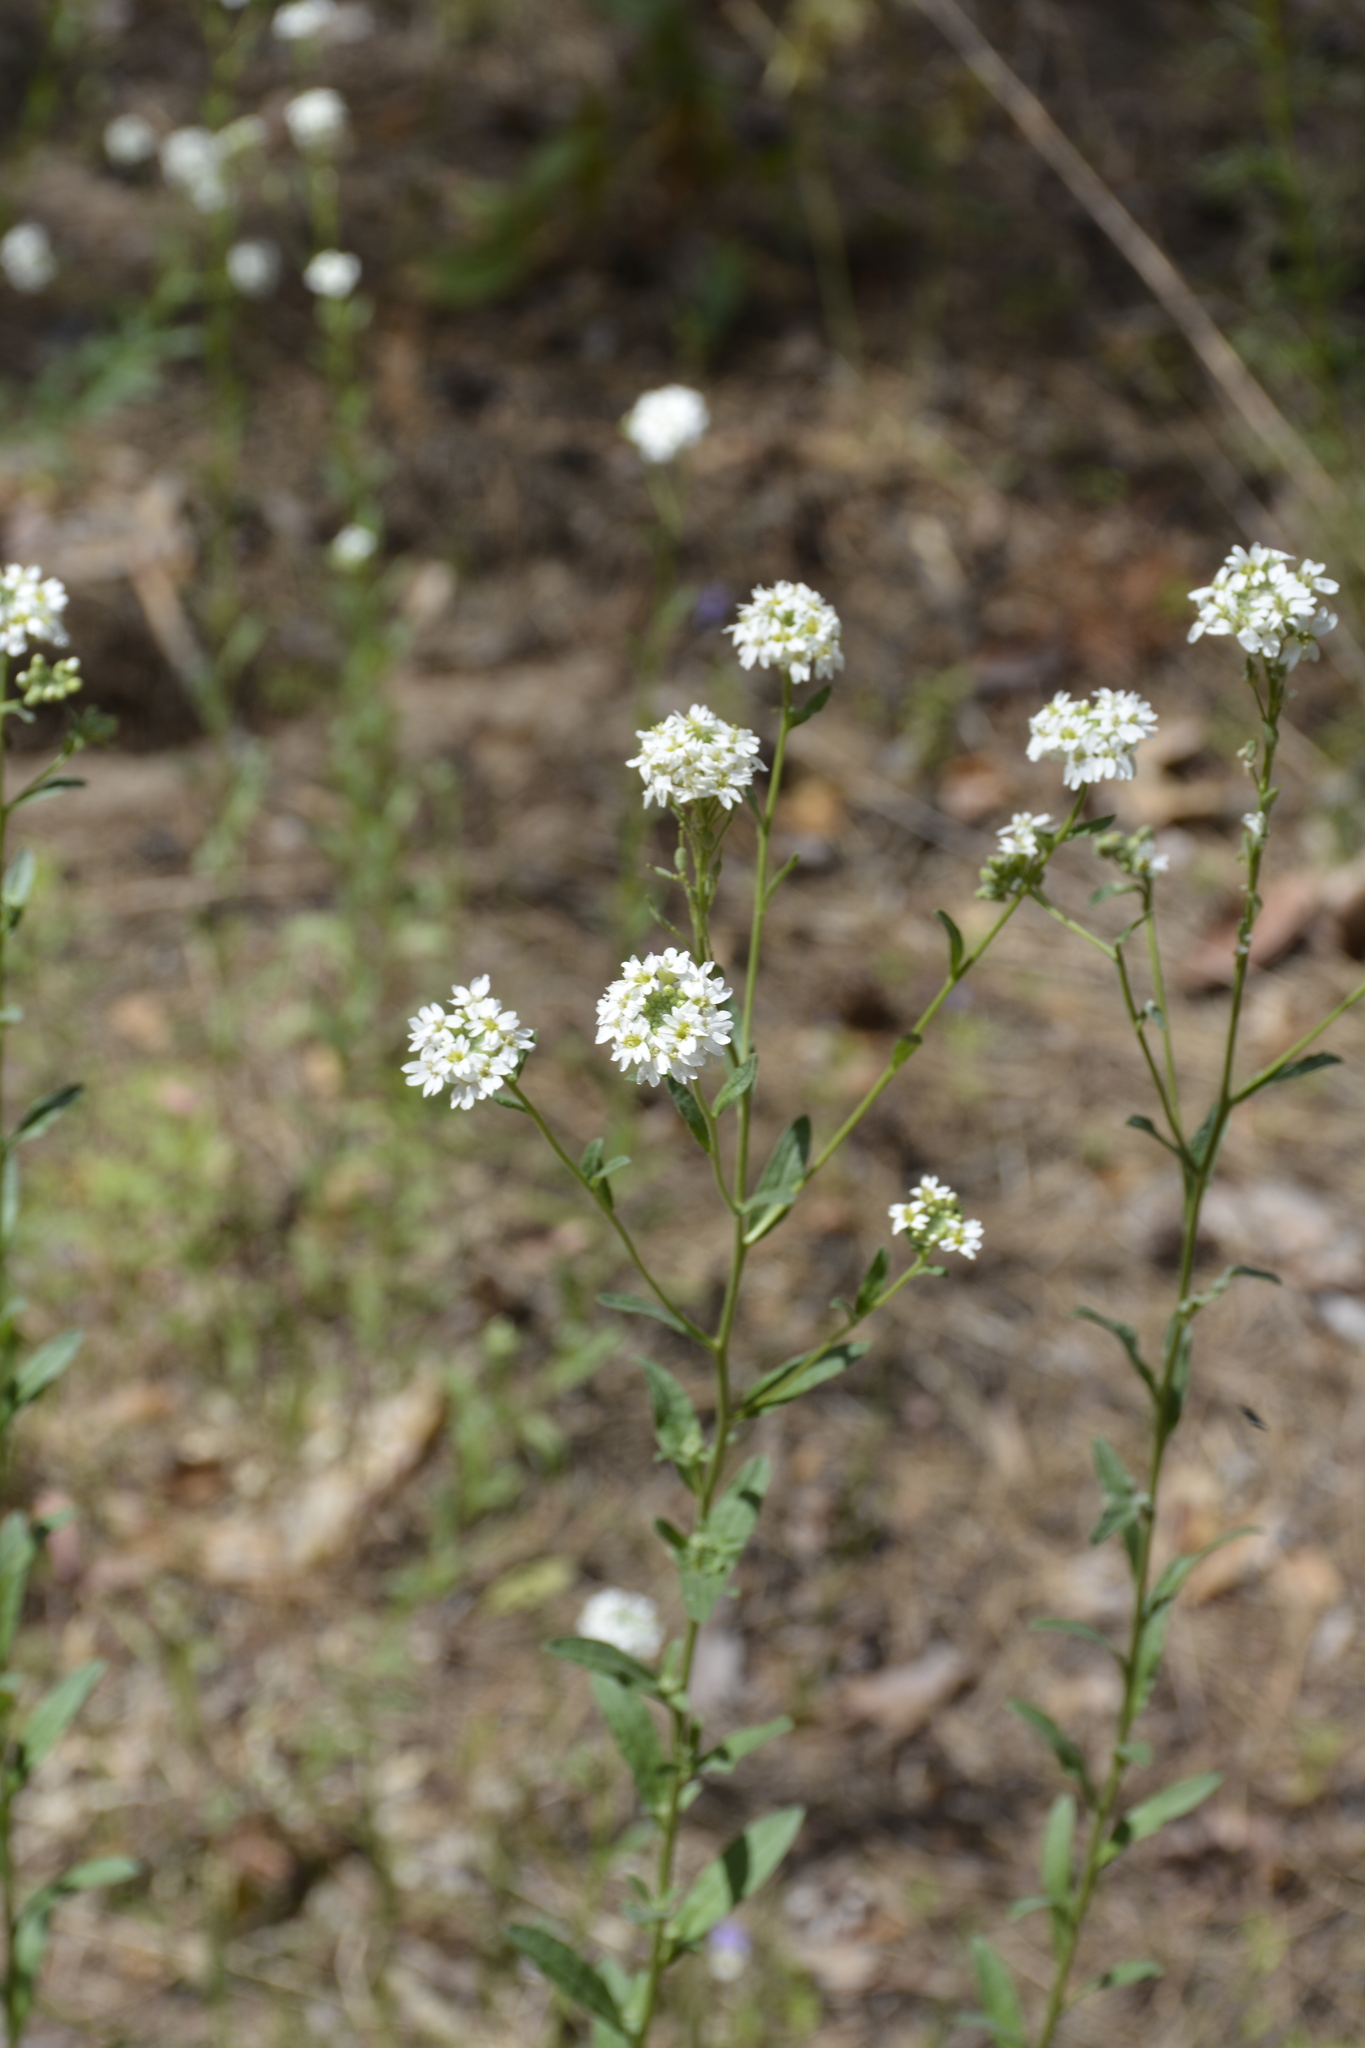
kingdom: Plantae
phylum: Tracheophyta
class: Magnoliopsida
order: Brassicales
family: Brassicaceae
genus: Berteroa
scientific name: Berteroa incana
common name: Hoary alison
